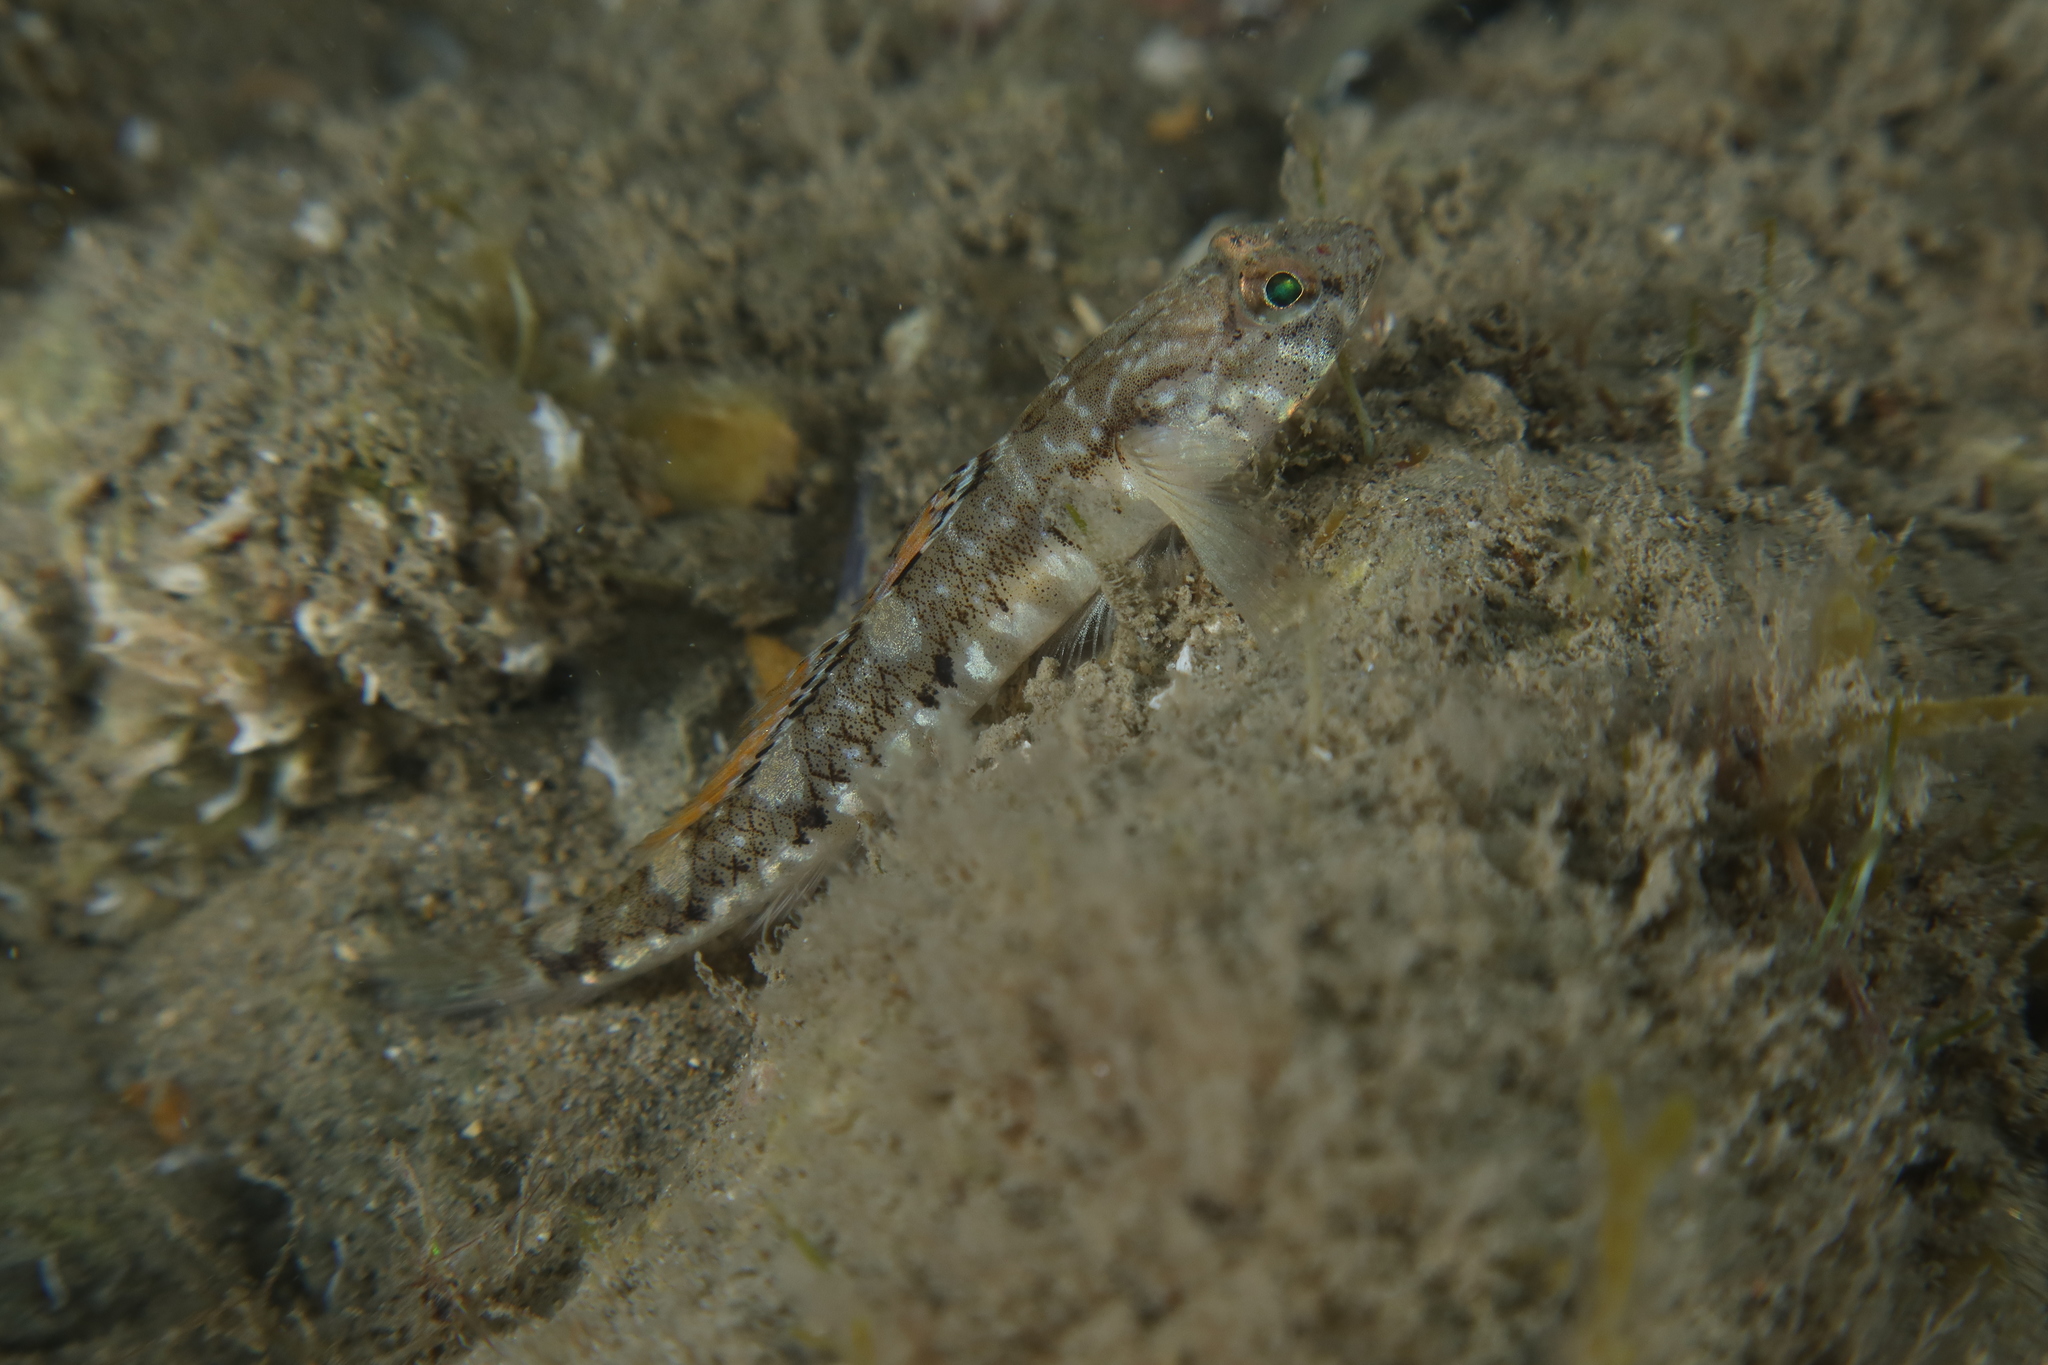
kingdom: Animalia
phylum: Chordata
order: Perciformes
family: Gobiidae
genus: Pomatoschistus
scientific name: Pomatoschistus pictus
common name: Painted goby
